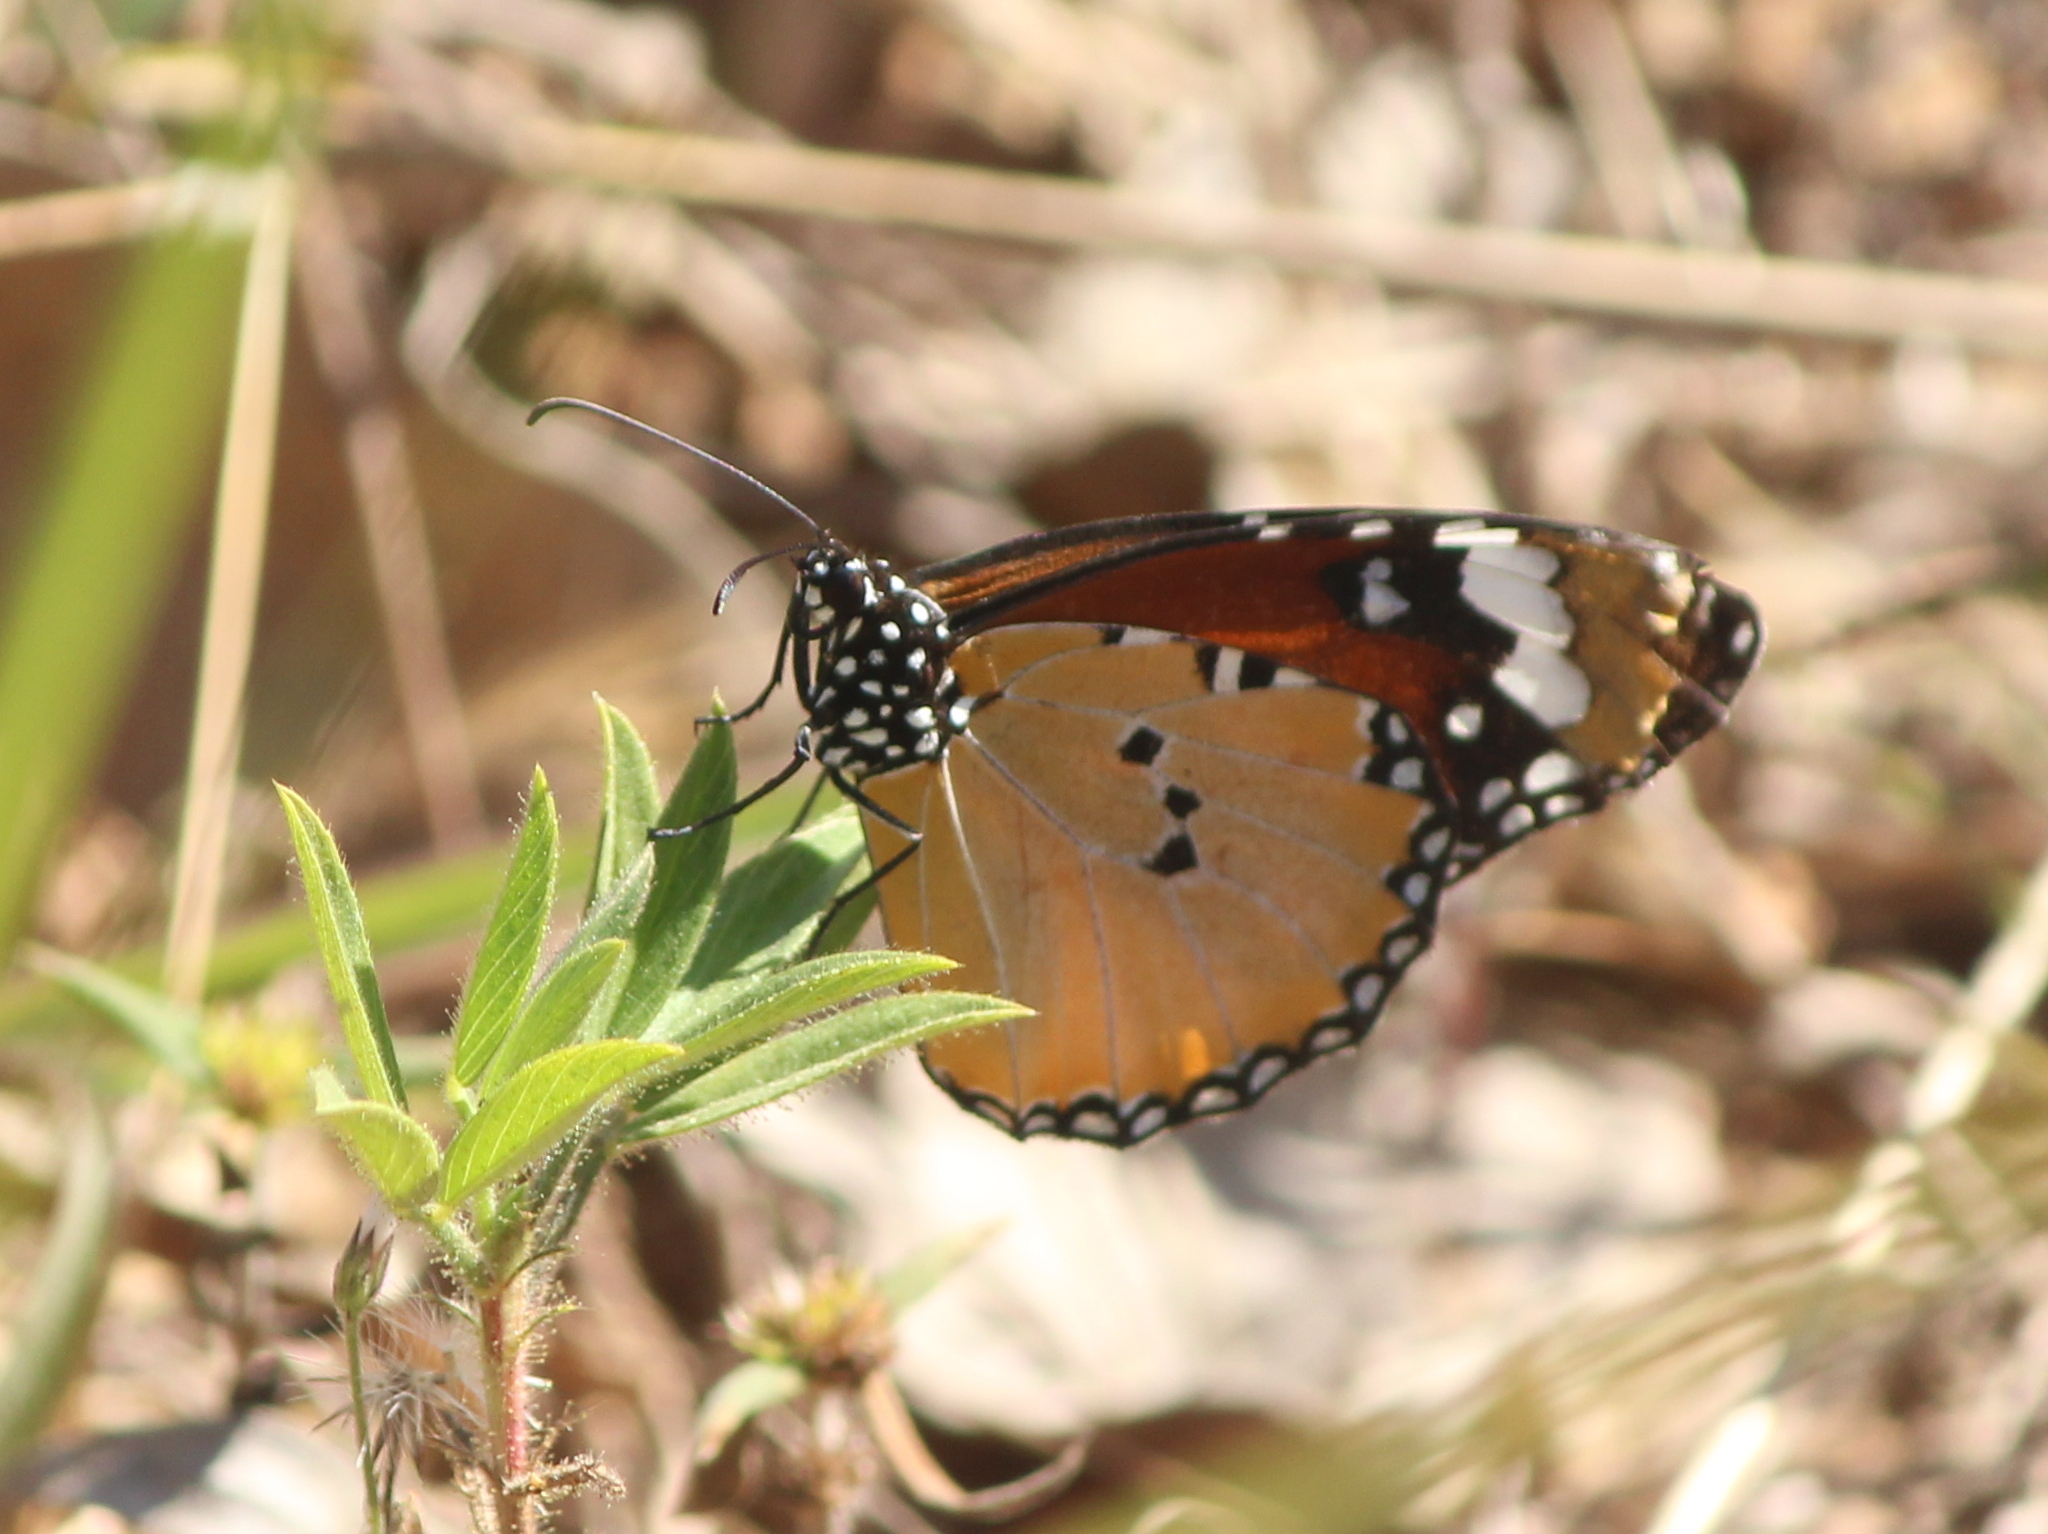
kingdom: Animalia
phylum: Arthropoda
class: Insecta
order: Lepidoptera
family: Nymphalidae
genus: Danaus
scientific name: Danaus chrysippus
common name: Plain tiger
